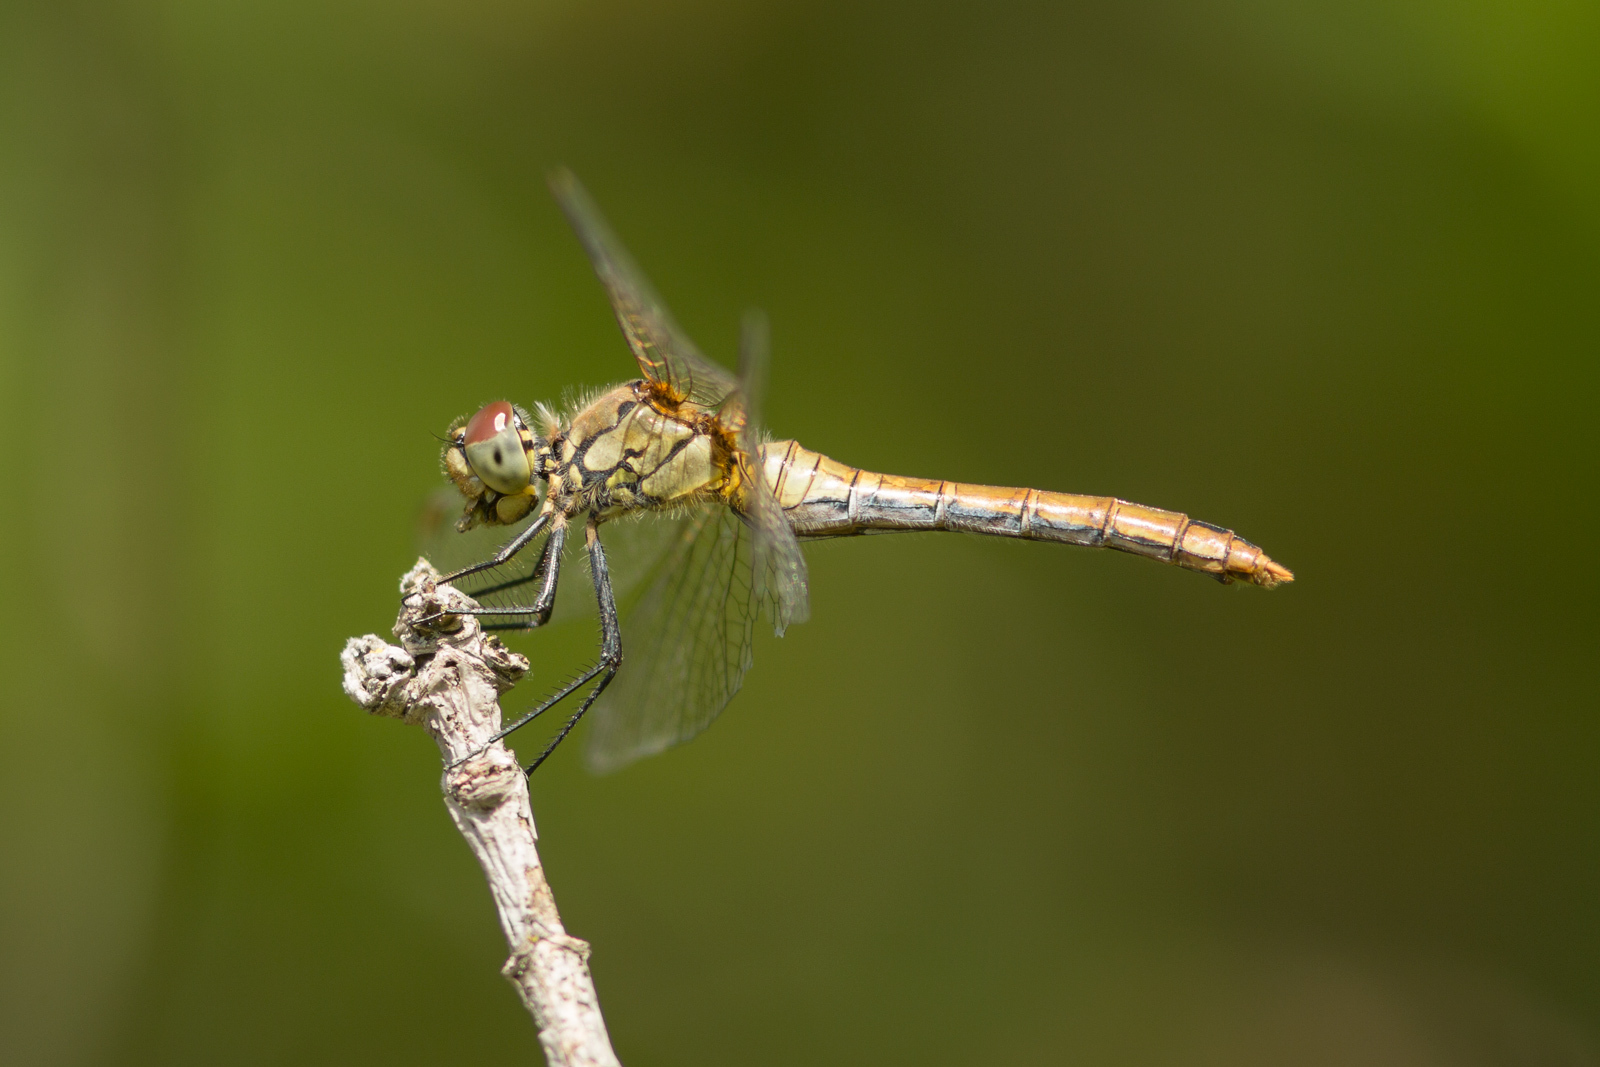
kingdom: Animalia
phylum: Arthropoda
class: Insecta
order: Odonata
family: Libellulidae
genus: Sympetrum
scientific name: Sympetrum sanguineum
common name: Ruddy darter
